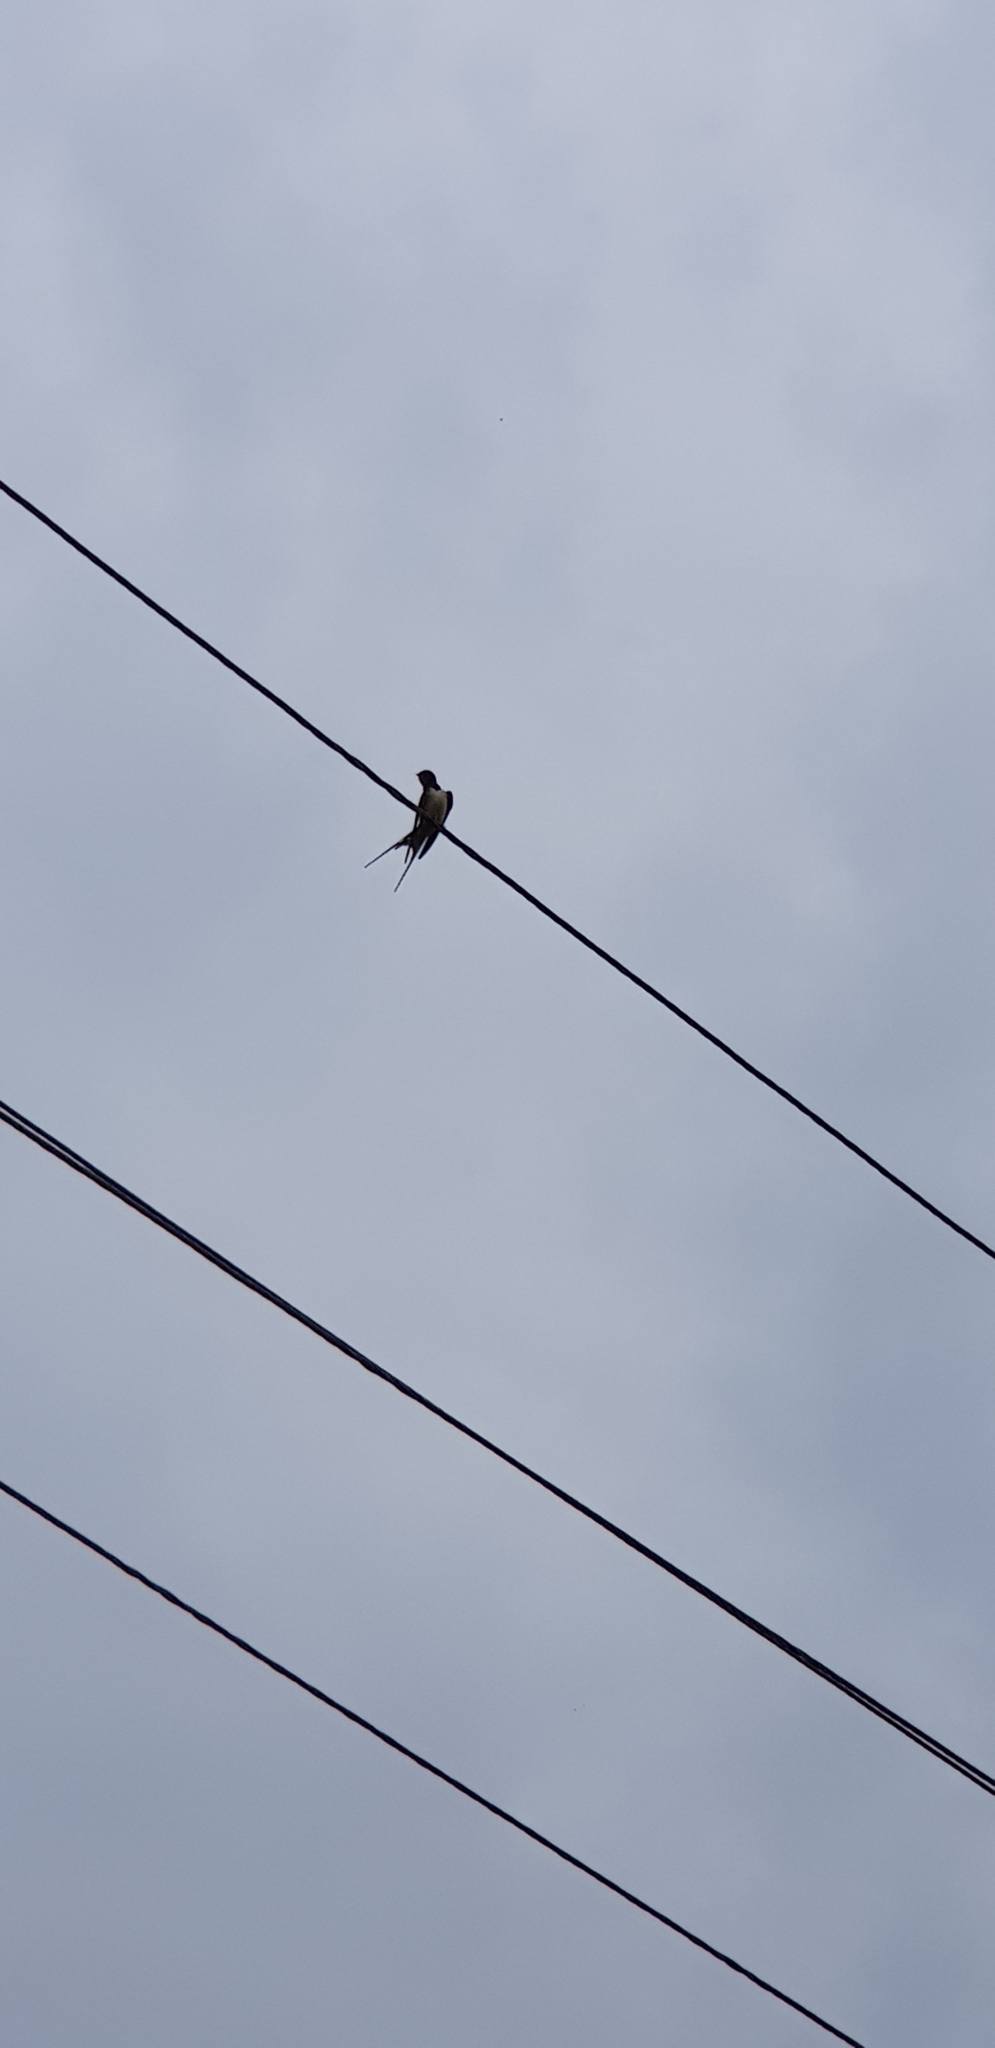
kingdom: Animalia
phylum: Chordata
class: Aves
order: Passeriformes
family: Hirundinidae
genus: Hirundo
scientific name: Hirundo rustica
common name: Barn swallow
